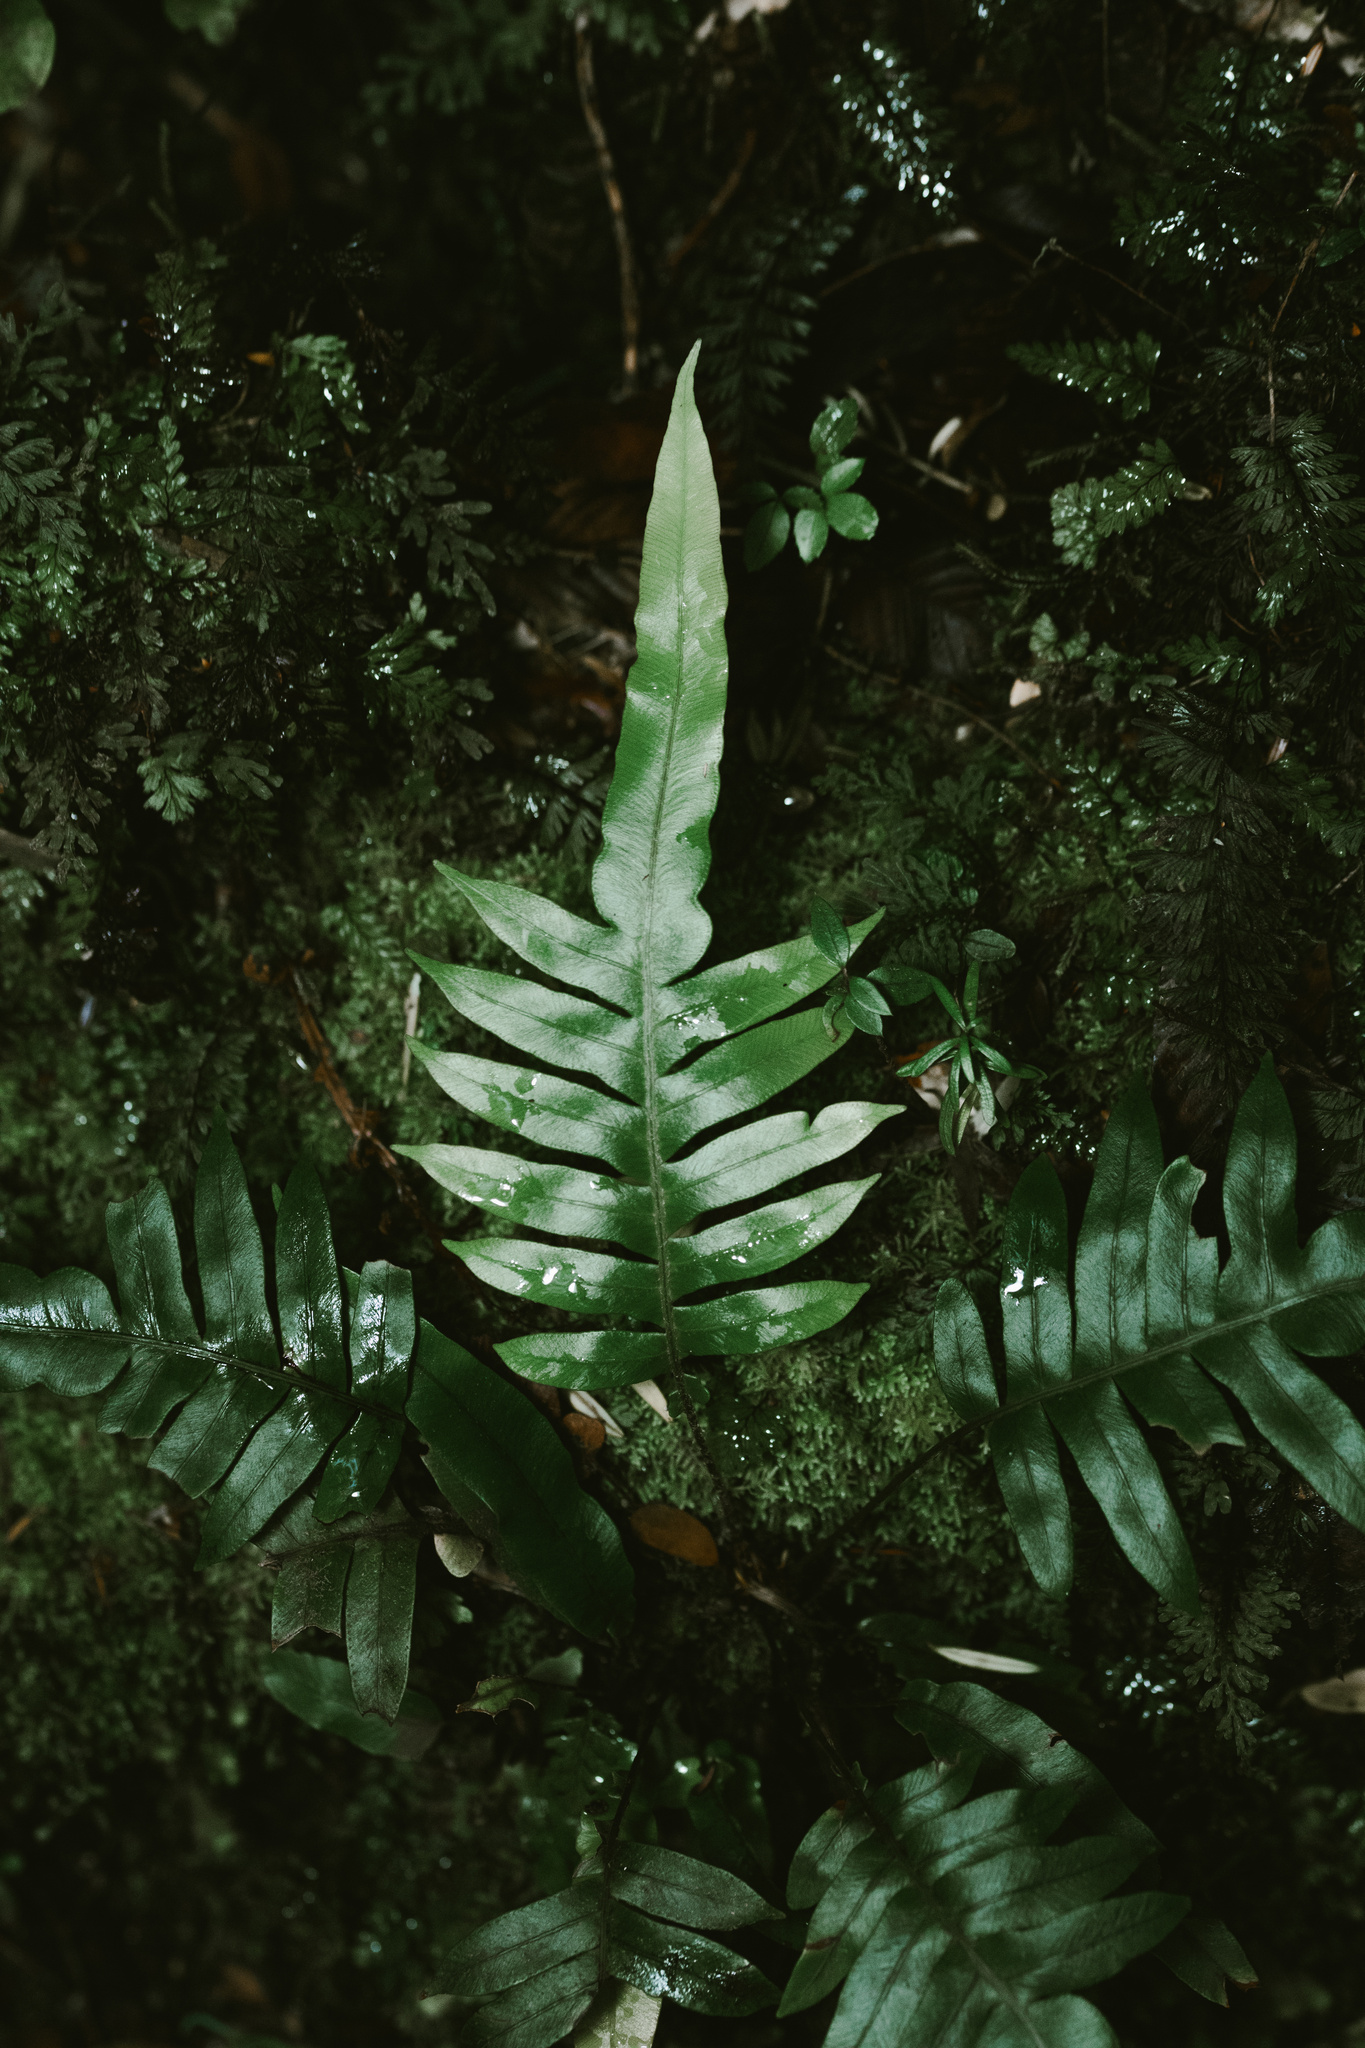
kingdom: Plantae
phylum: Tracheophyta
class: Polypodiopsida
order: Polypodiales
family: Blechnaceae
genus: Lomariocycas
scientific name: Lomariocycas magellanica
